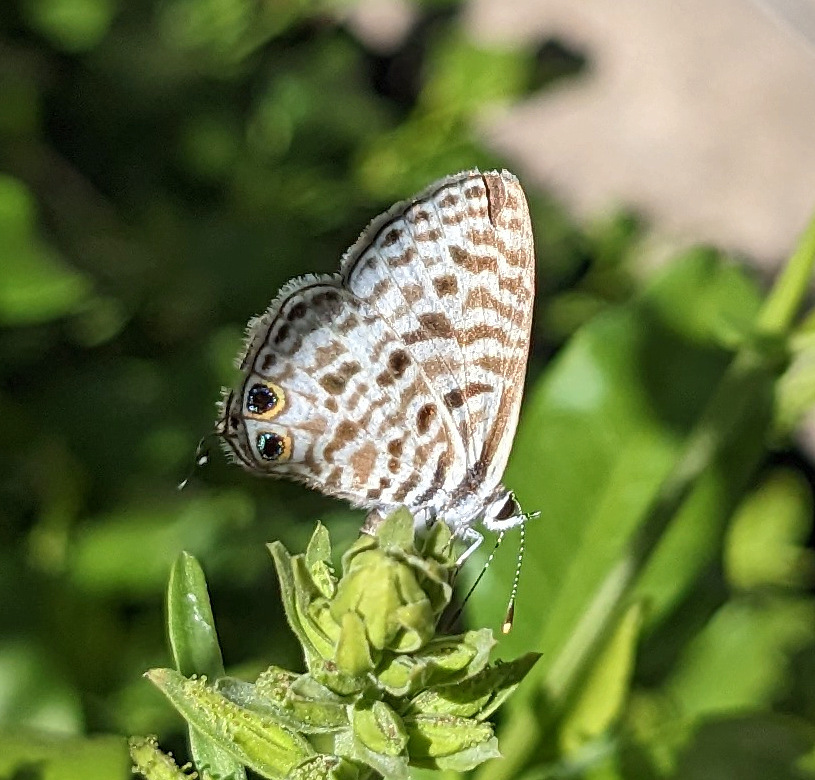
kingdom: Animalia
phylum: Arthropoda
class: Insecta
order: Lepidoptera
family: Lycaenidae
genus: Leptotes
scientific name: Leptotes
